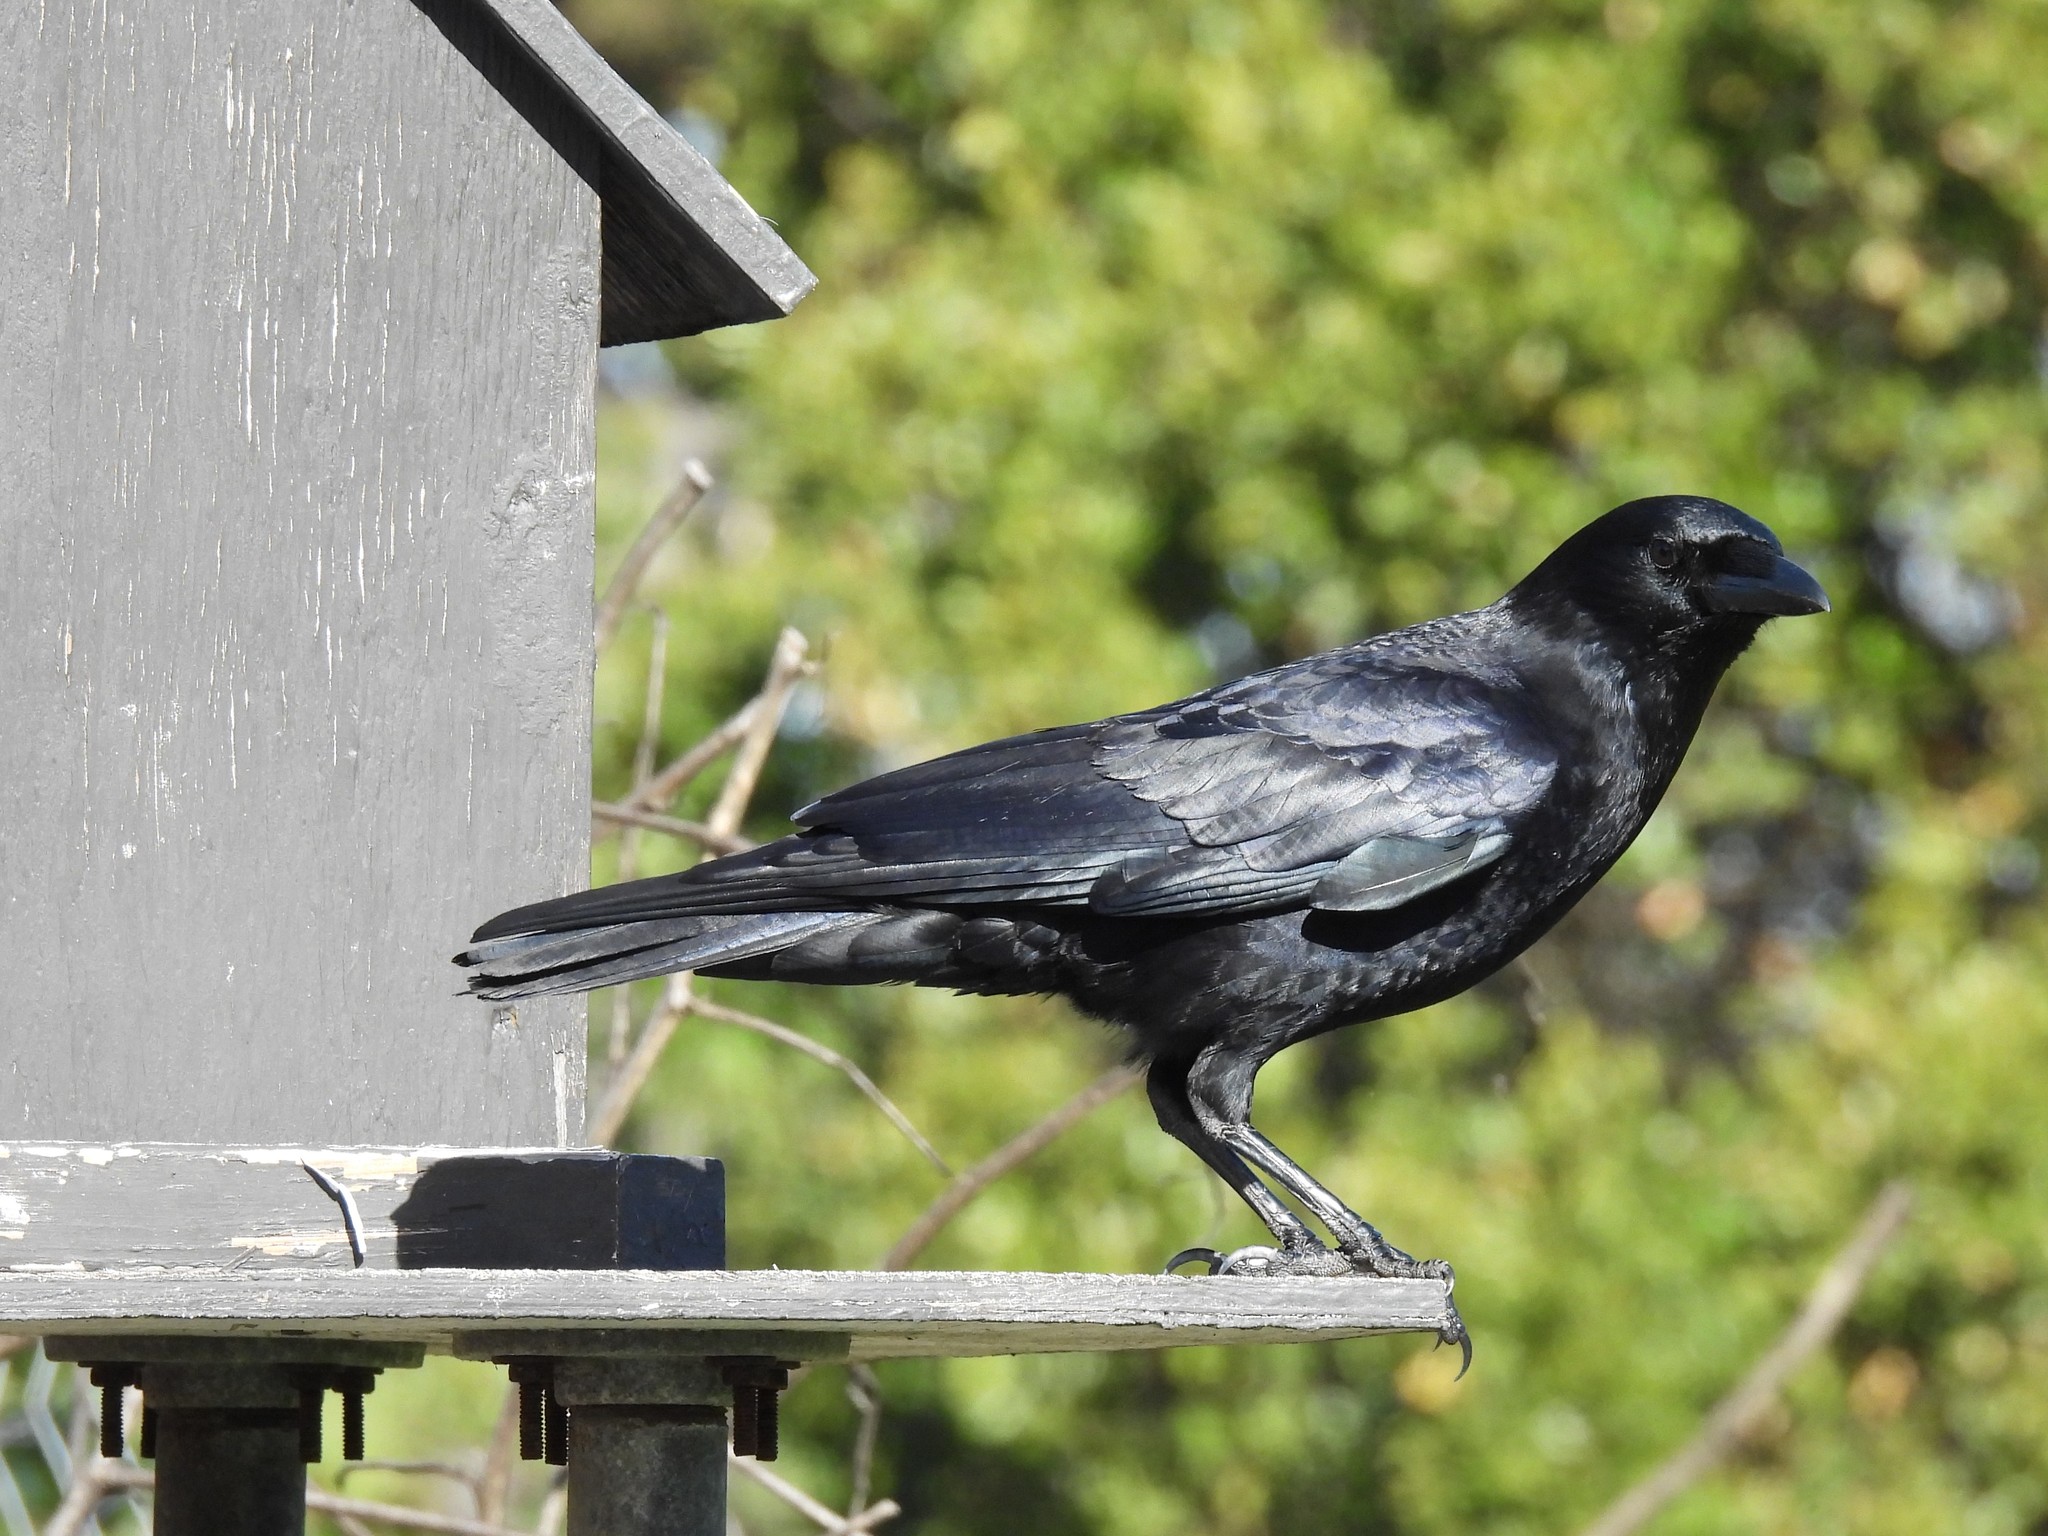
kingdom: Animalia
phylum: Chordata
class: Aves
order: Passeriformes
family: Corvidae
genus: Corvus
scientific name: Corvus brachyrhynchos
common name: American crow
